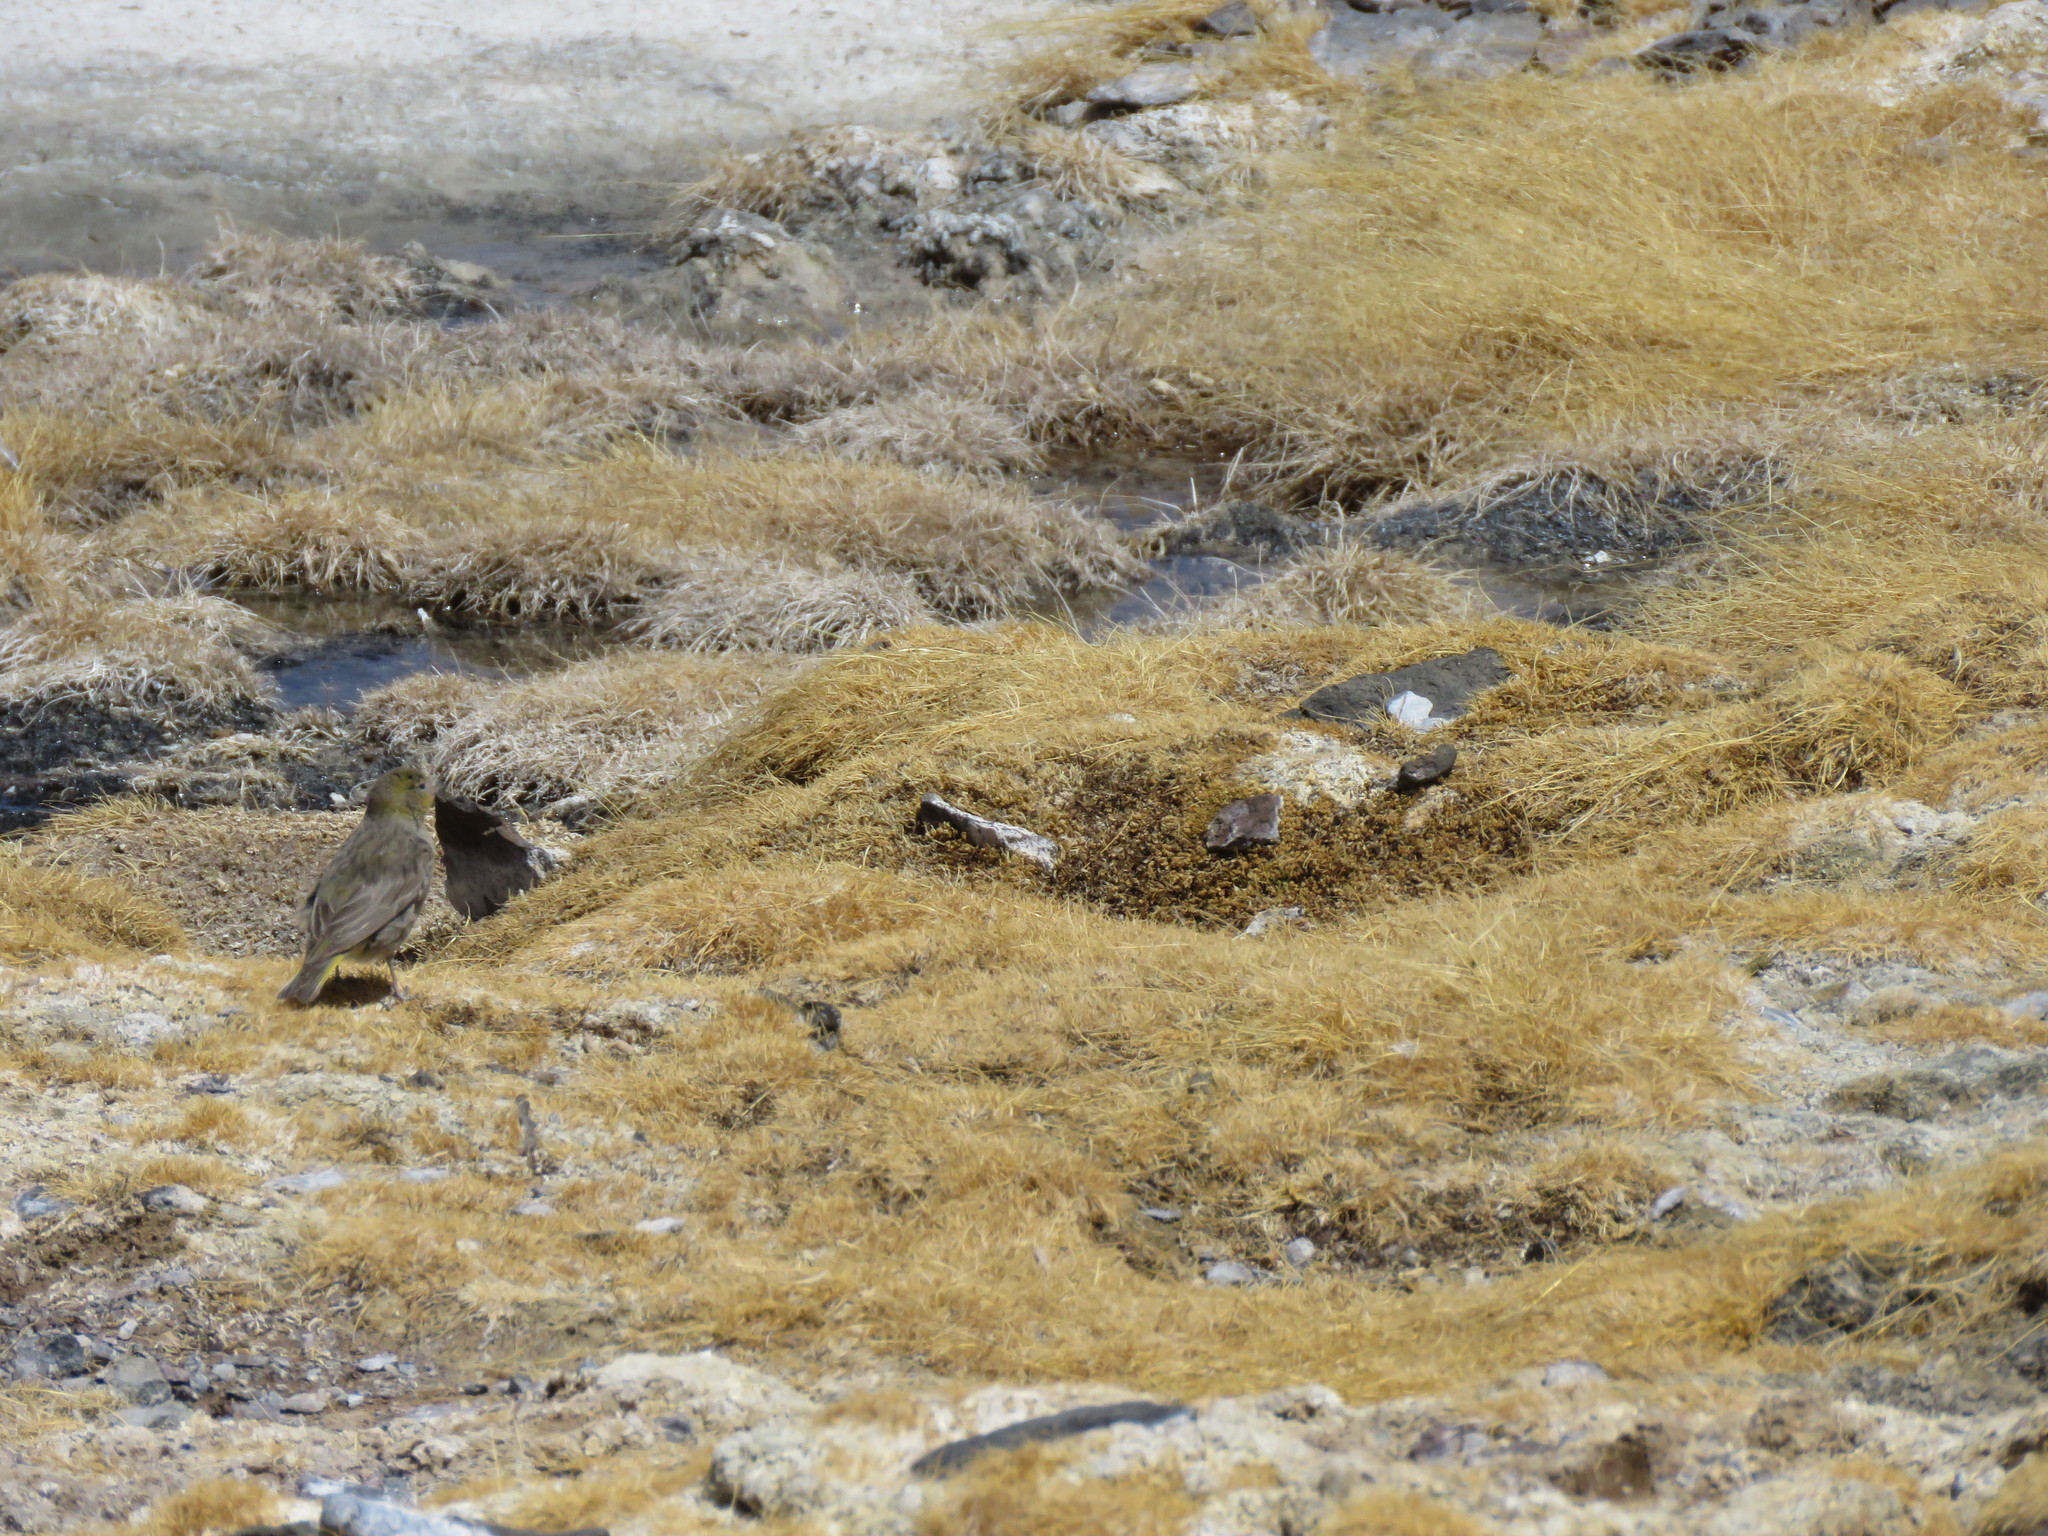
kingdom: Animalia
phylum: Chordata
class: Aves
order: Passeriformes
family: Thraupidae
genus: Sicalis
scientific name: Sicalis olivascens
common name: Greenish yellow finch
